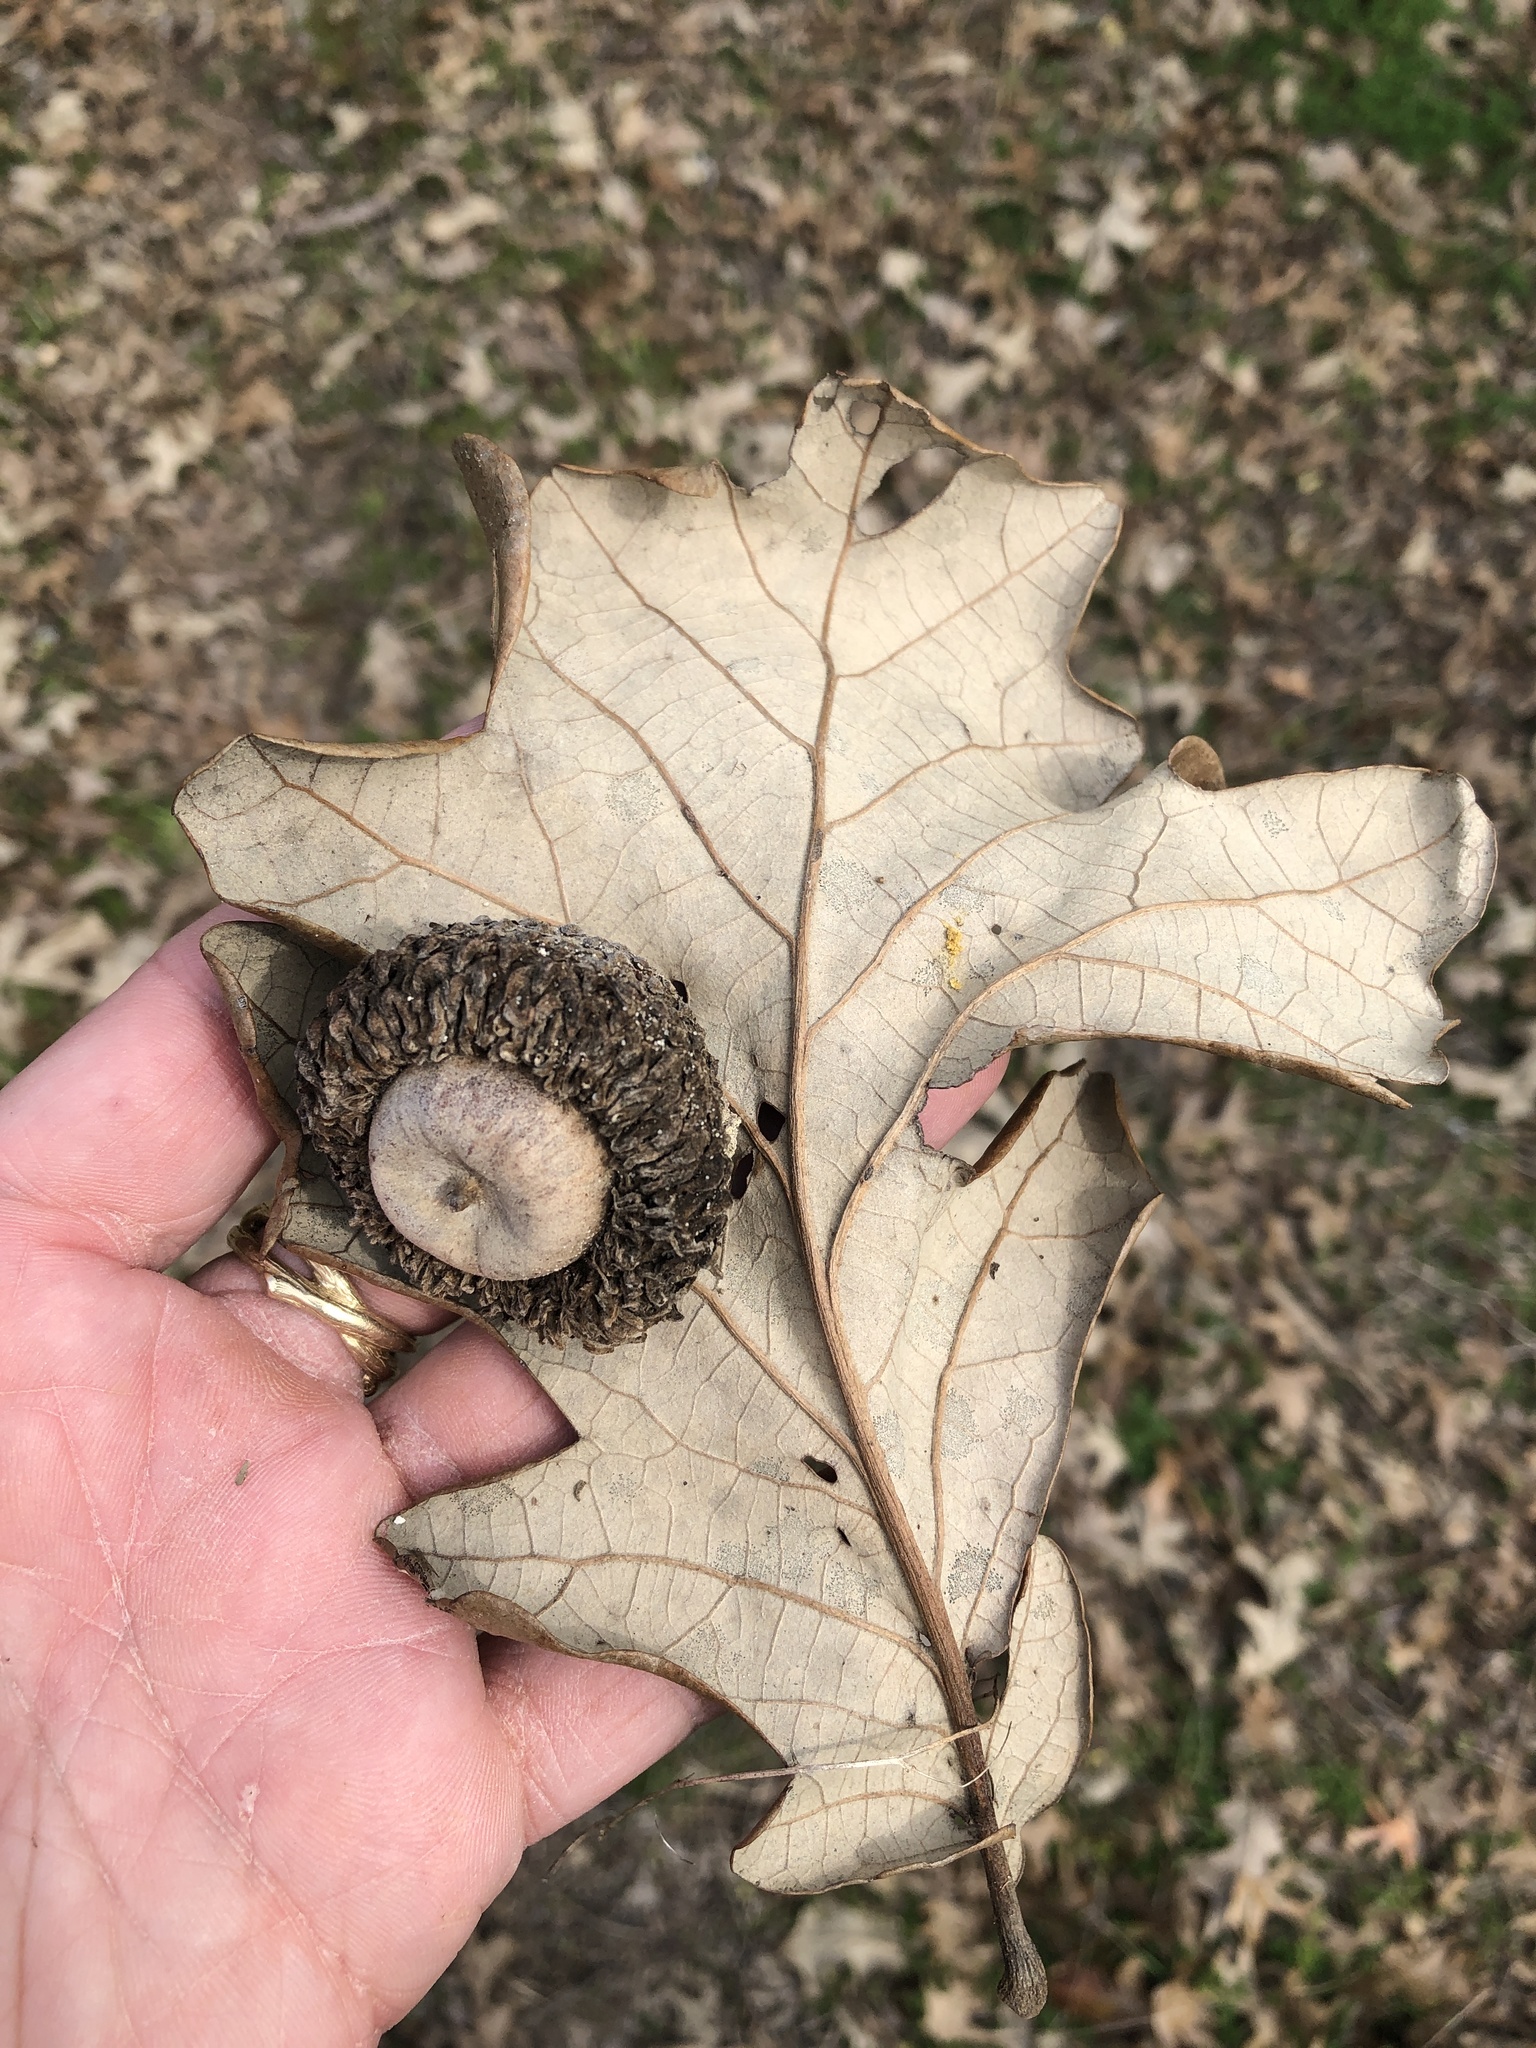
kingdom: Plantae
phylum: Tracheophyta
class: Magnoliopsida
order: Fagales
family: Fagaceae
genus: Quercus
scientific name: Quercus macrocarpa
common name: Bur oak
